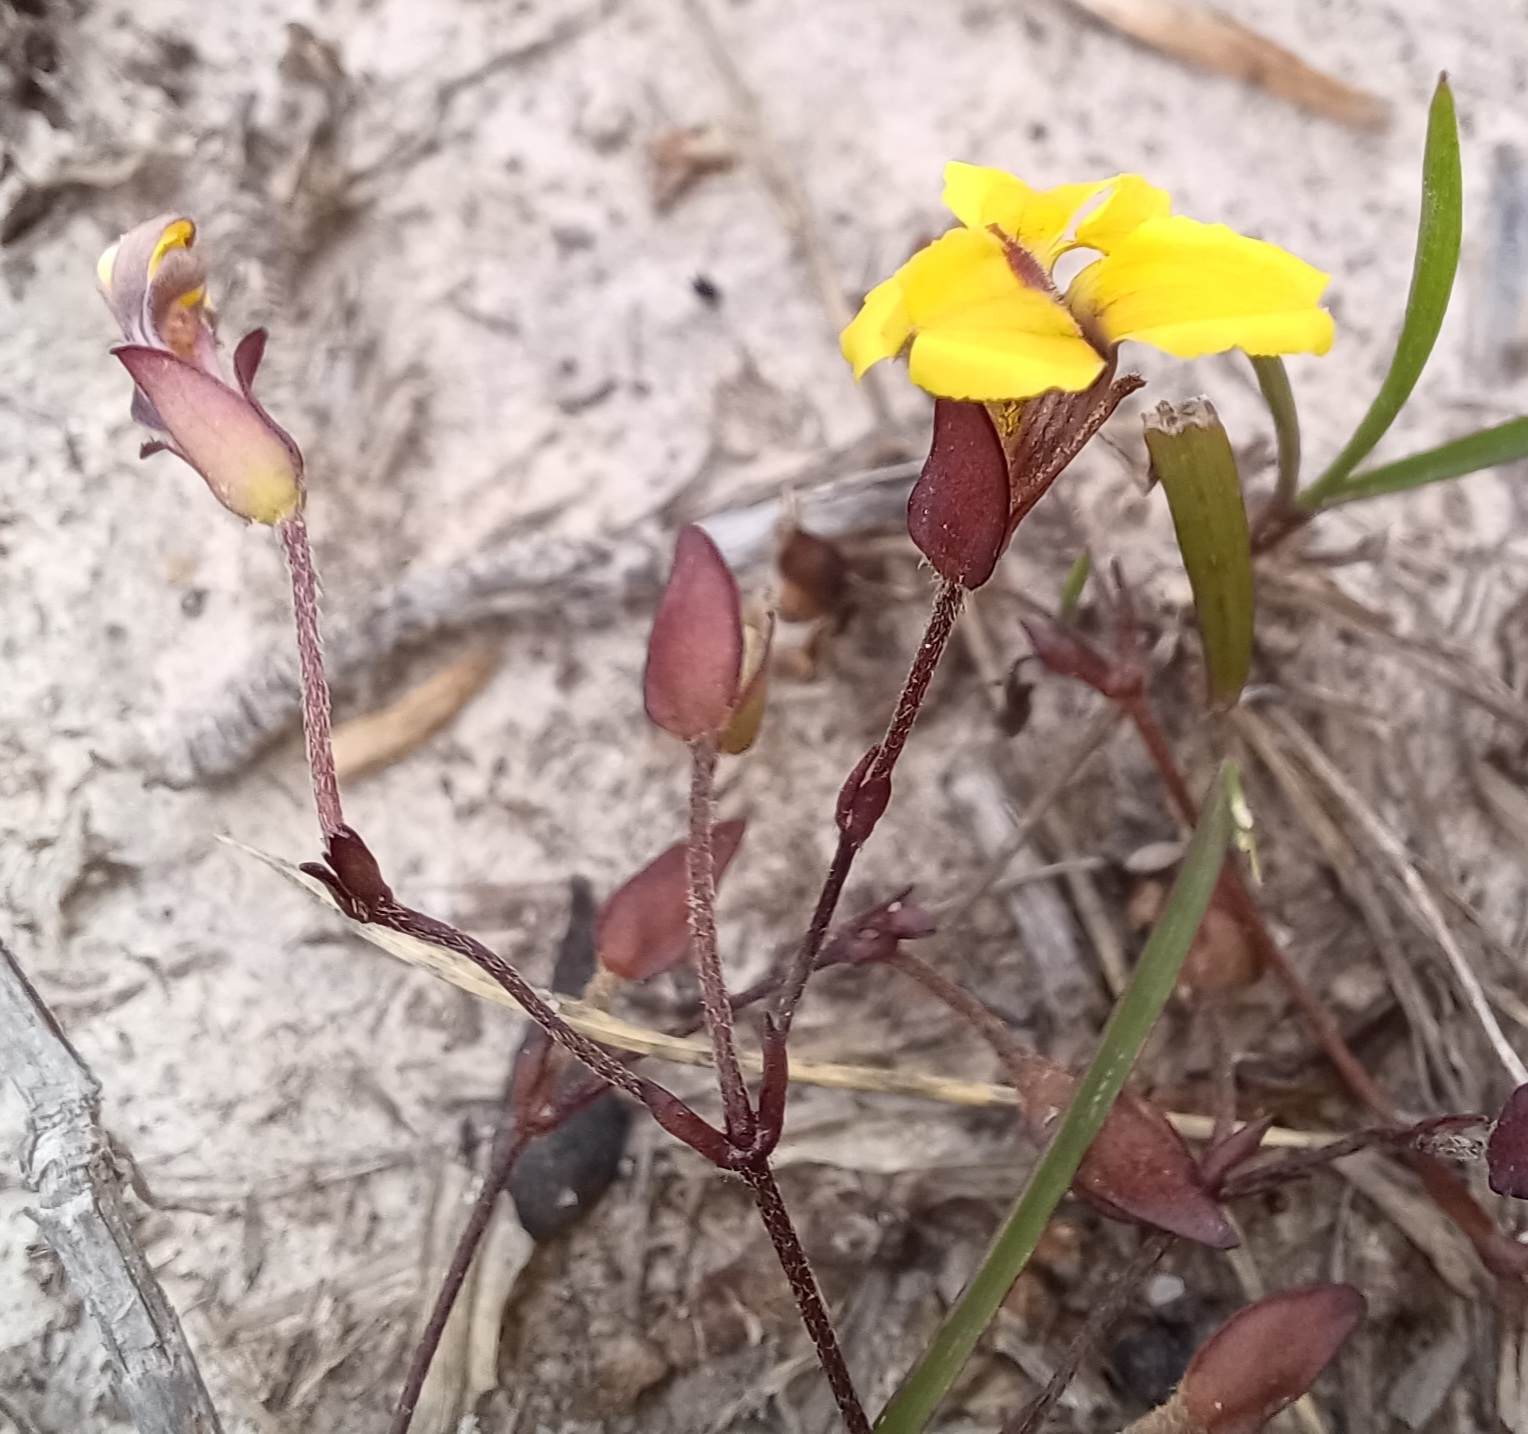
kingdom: Plantae
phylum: Tracheophyta
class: Magnoliopsida
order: Asterales
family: Goodeniaceae
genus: Goodenia
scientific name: Goodenia mystrophylla
